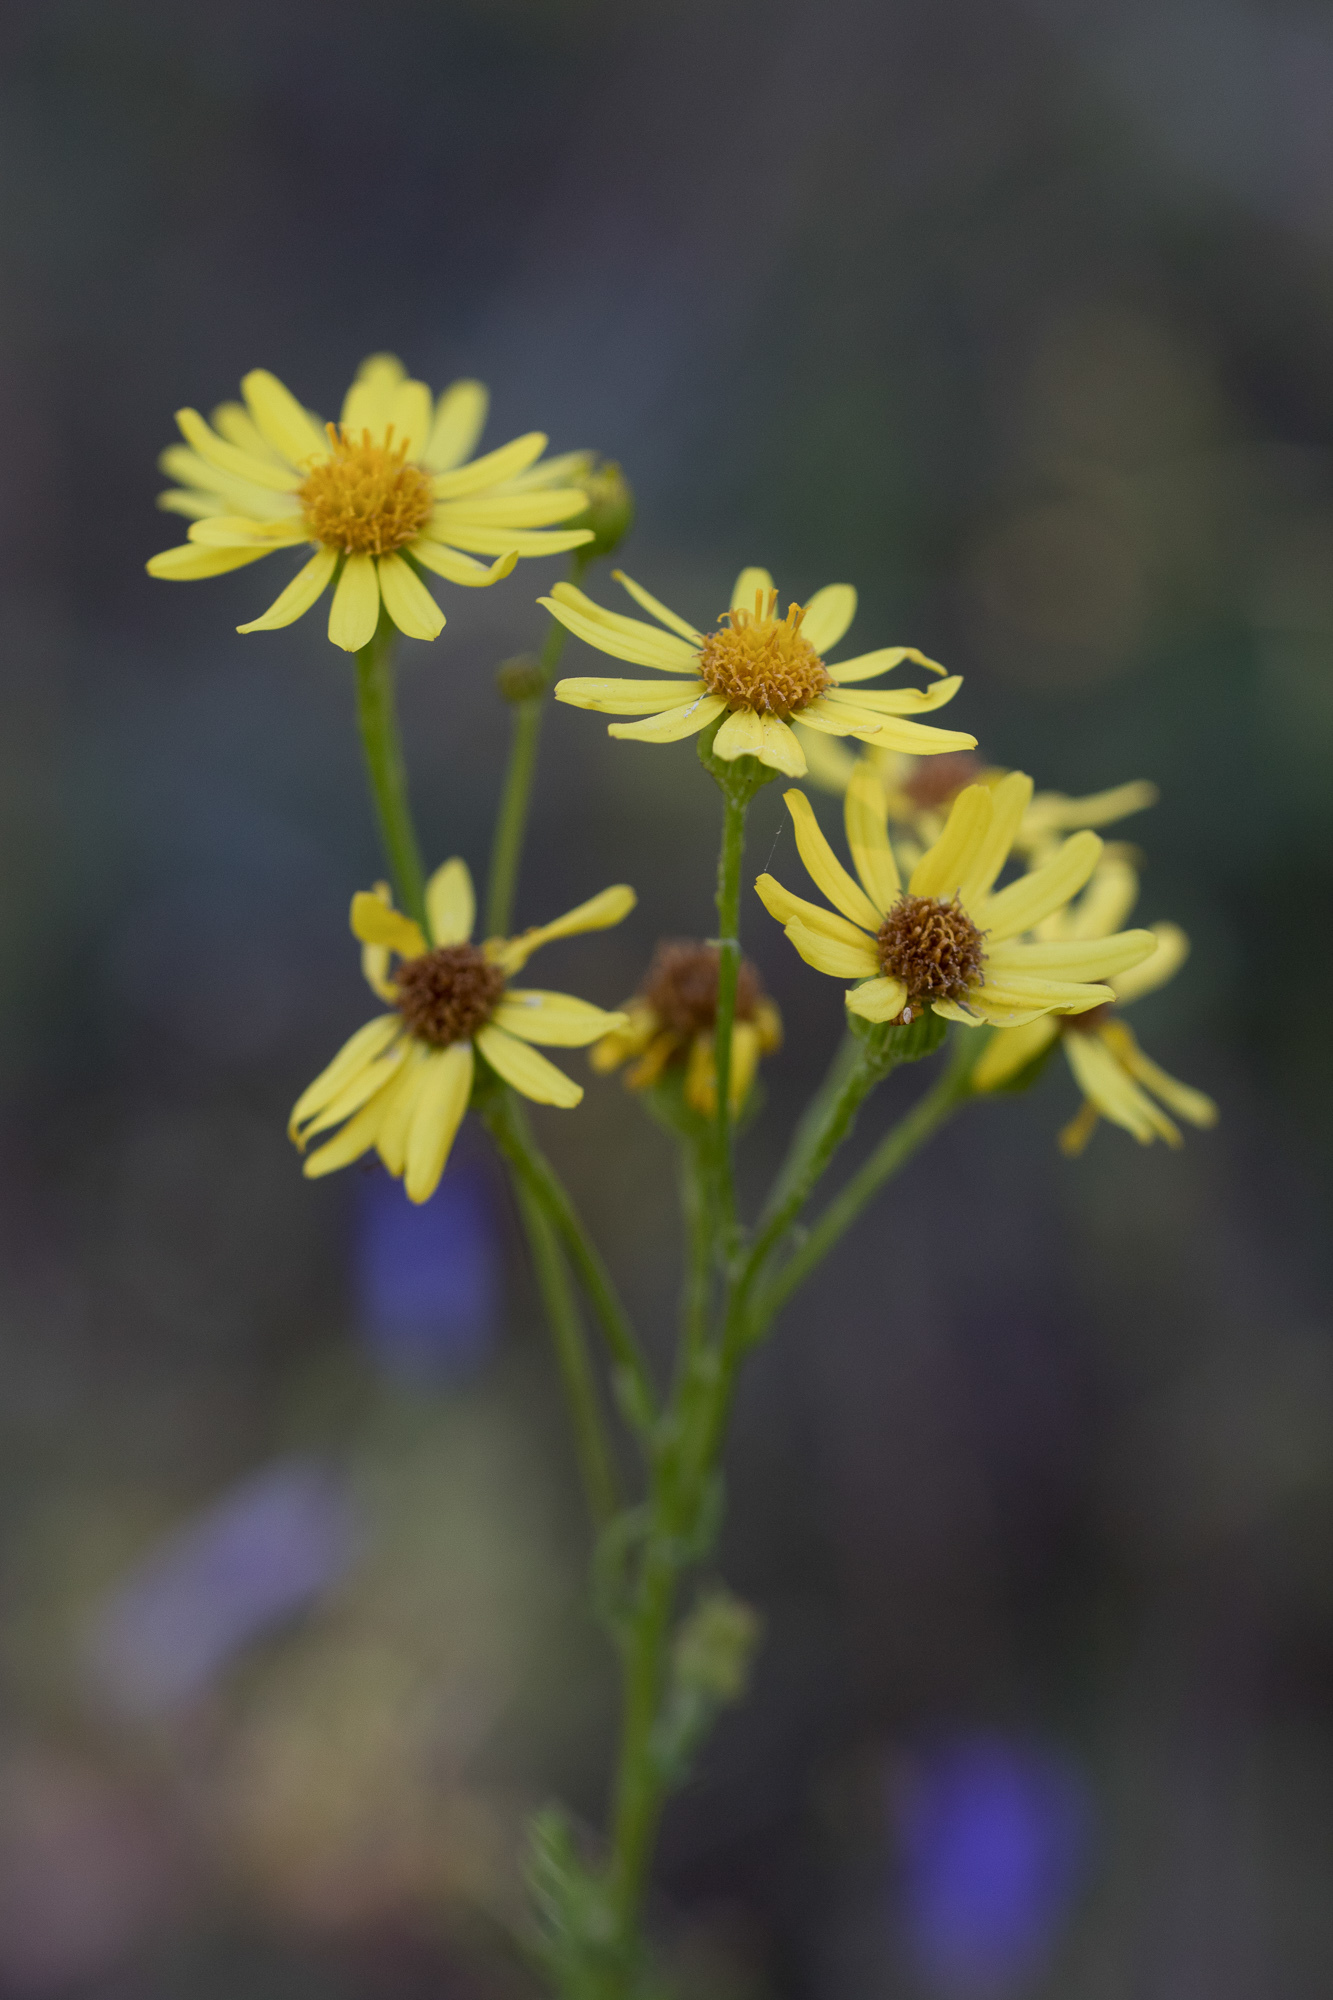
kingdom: Plantae
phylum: Tracheophyta
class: Magnoliopsida
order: Asterales
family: Asteraceae
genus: Jacobaea
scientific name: Jacobaea vulgaris
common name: Stinking willie
